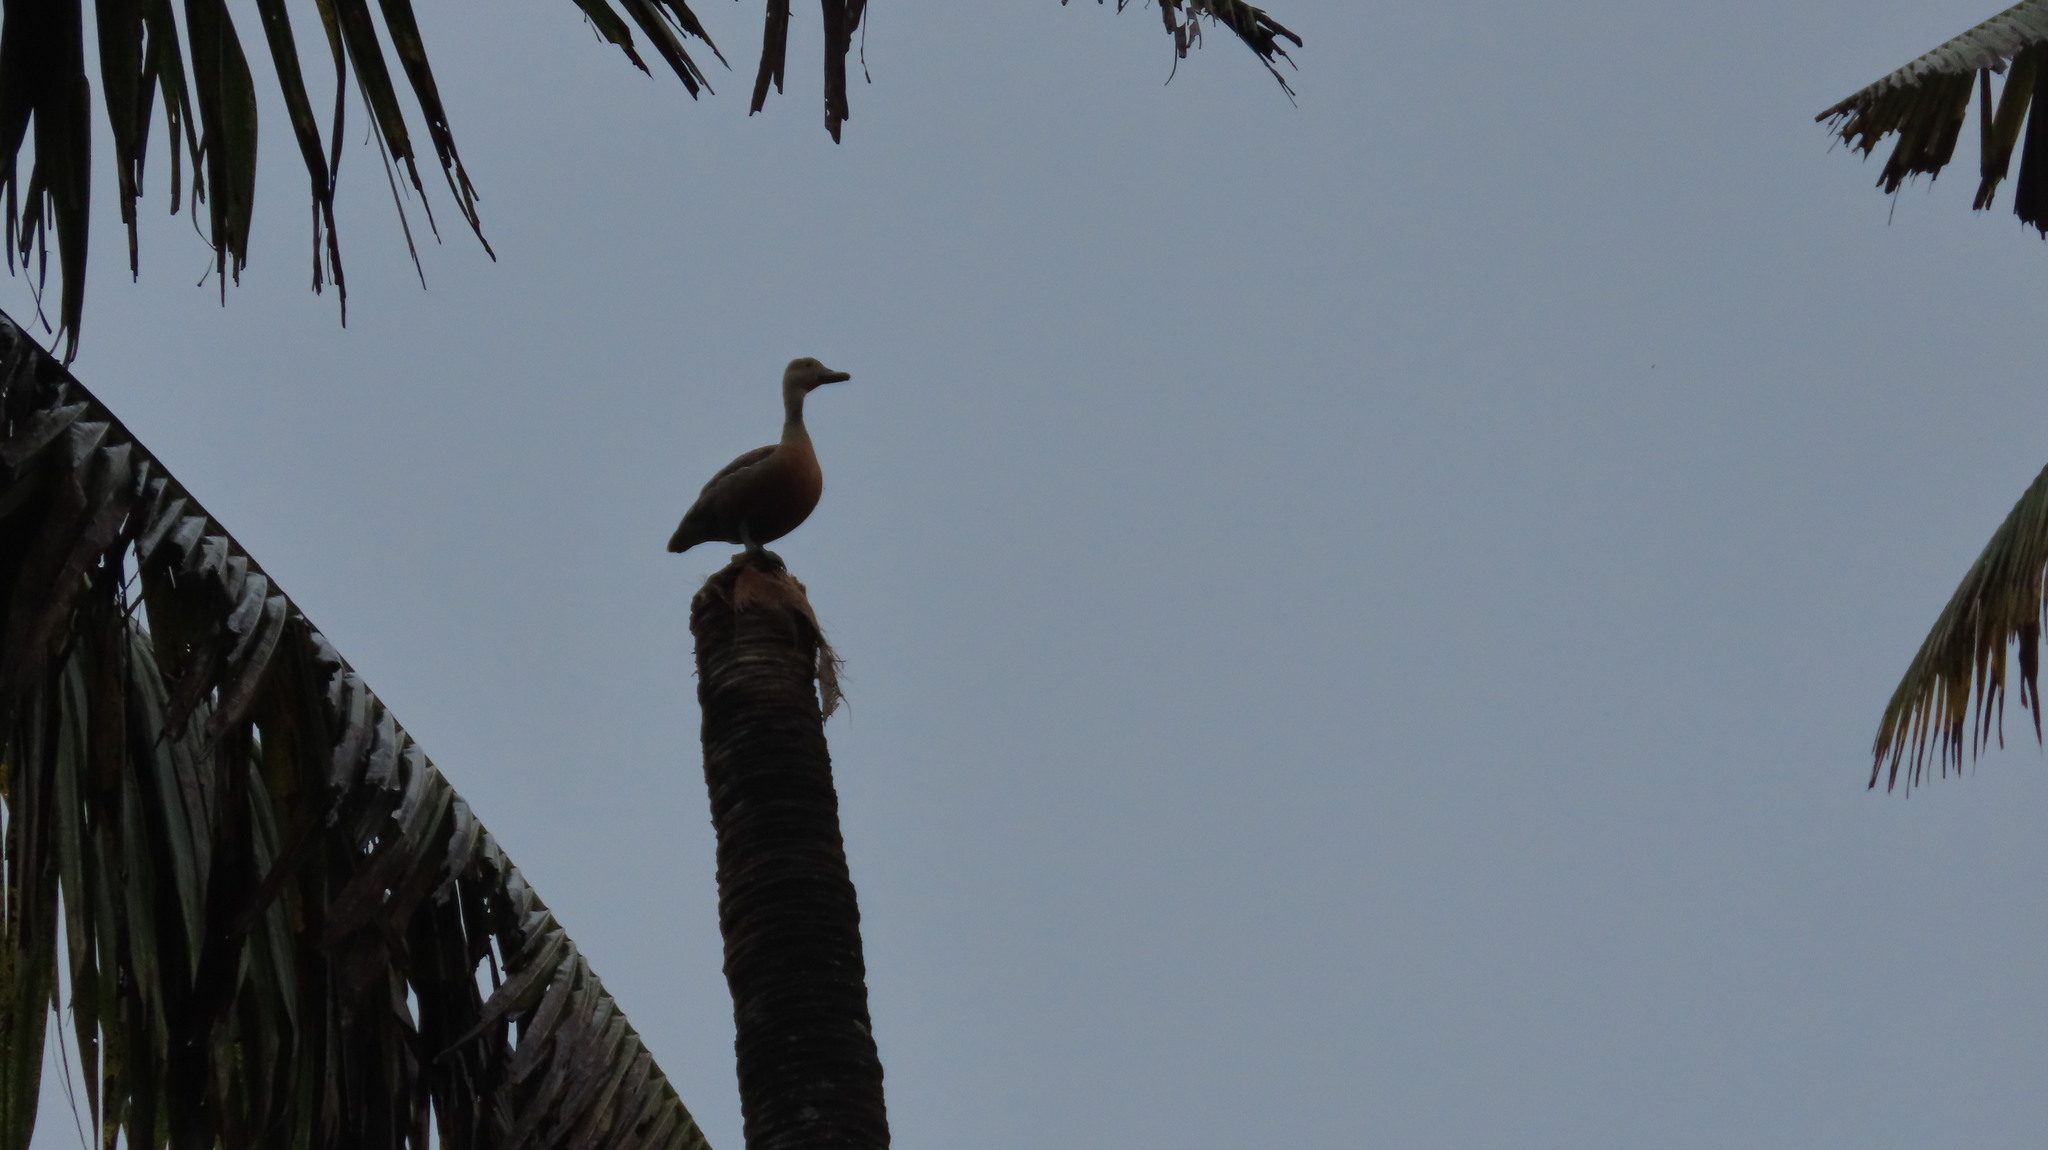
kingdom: Animalia
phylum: Chordata
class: Aves
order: Anseriformes
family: Anatidae
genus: Dendrocygna
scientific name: Dendrocygna javanica
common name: Lesser whistling-duck
